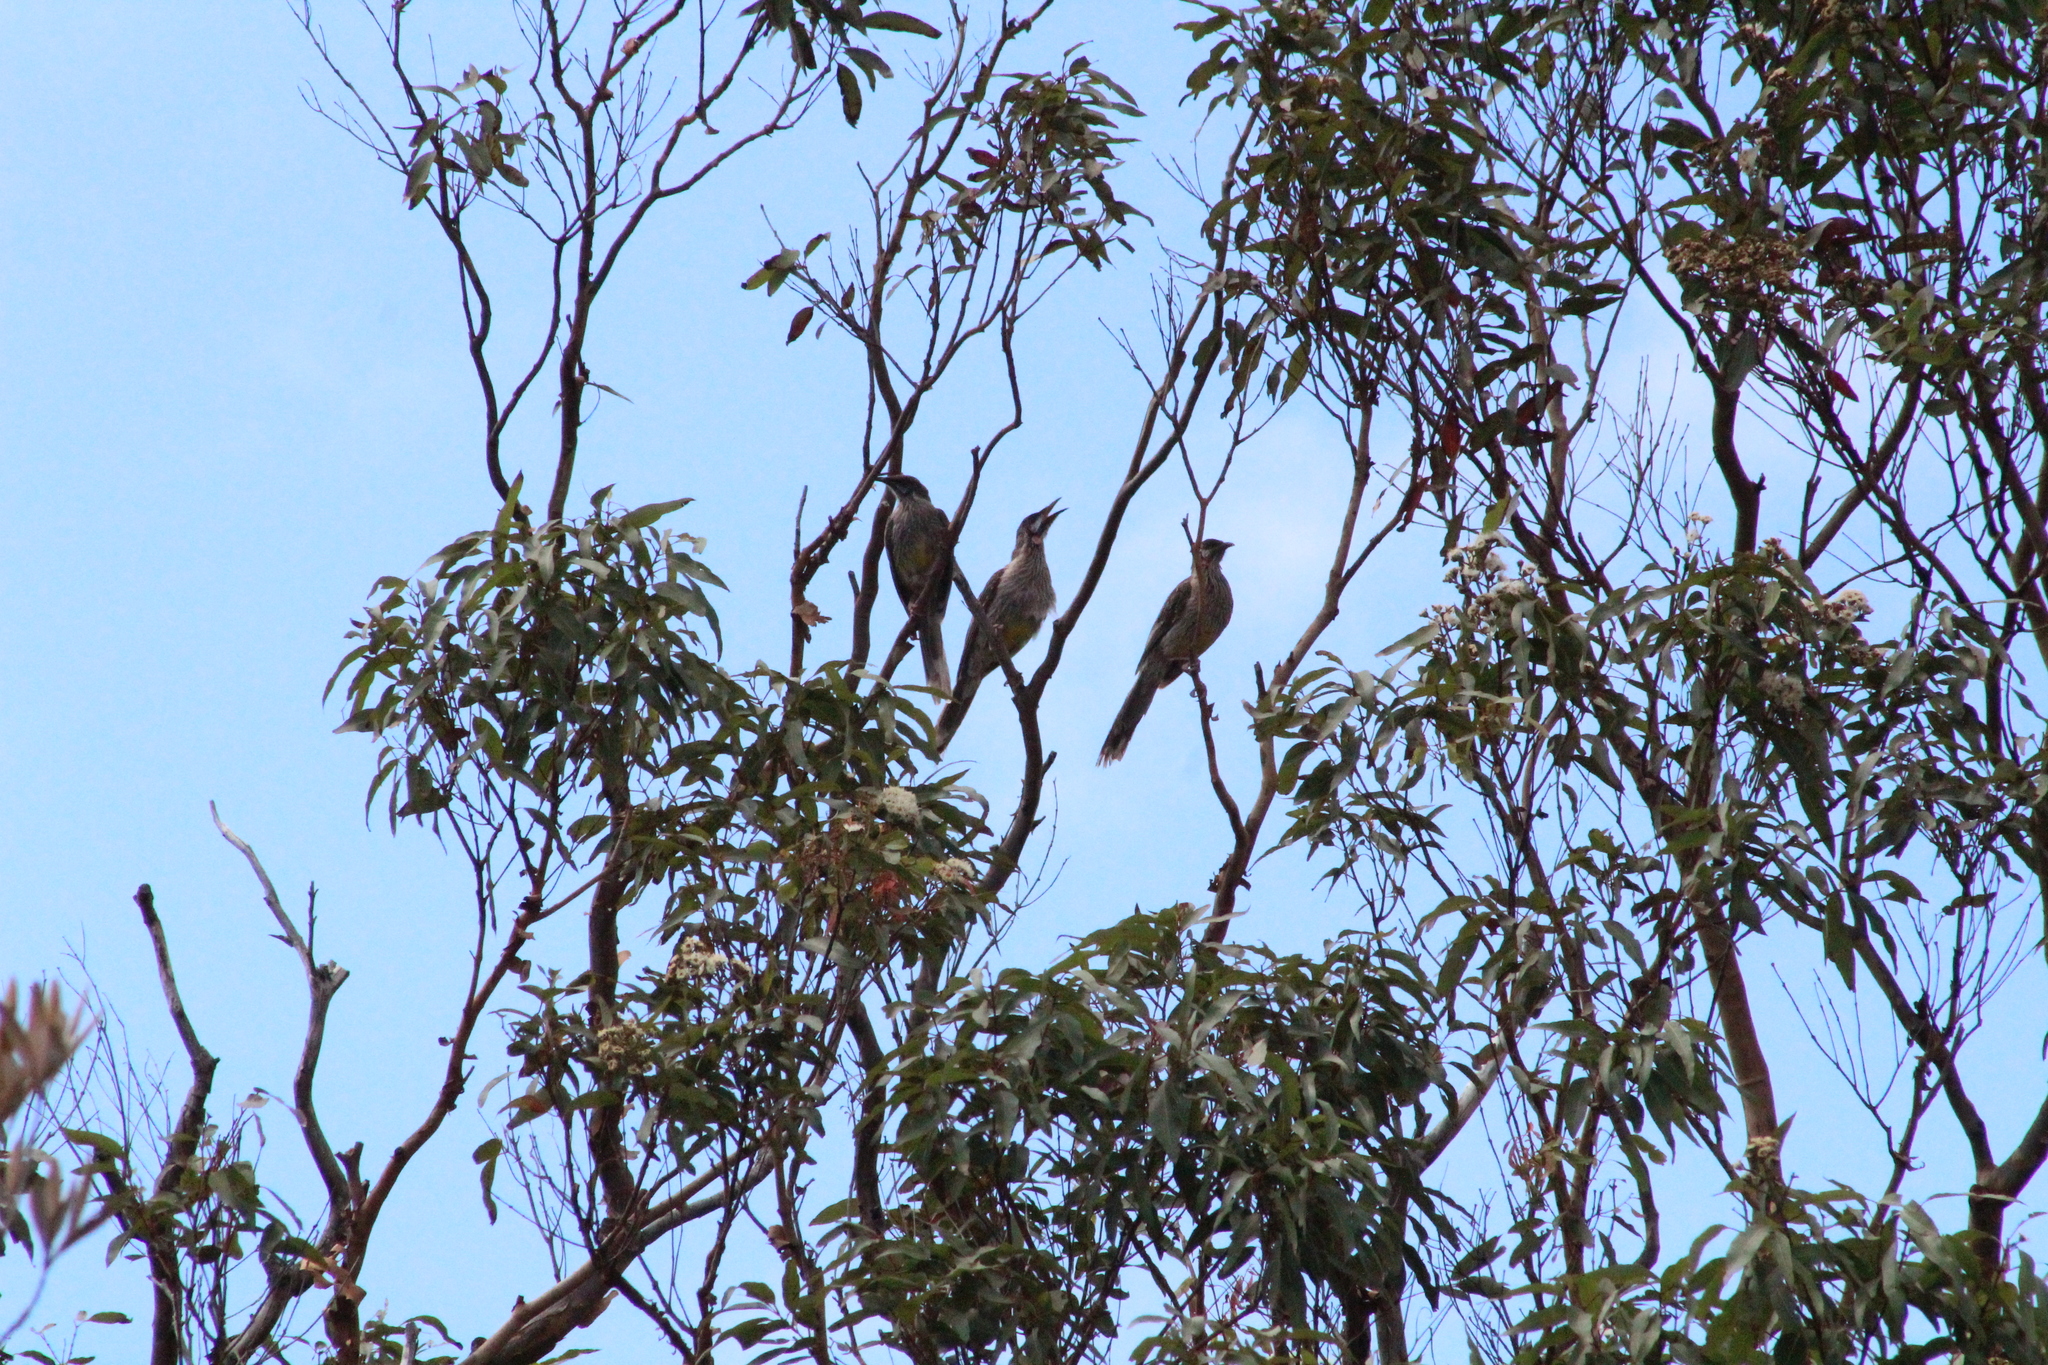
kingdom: Animalia
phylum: Chordata
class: Aves
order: Passeriformes
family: Meliphagidae
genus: Anthochaera
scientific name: Anthochaera carunculata
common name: Red wattlebird
